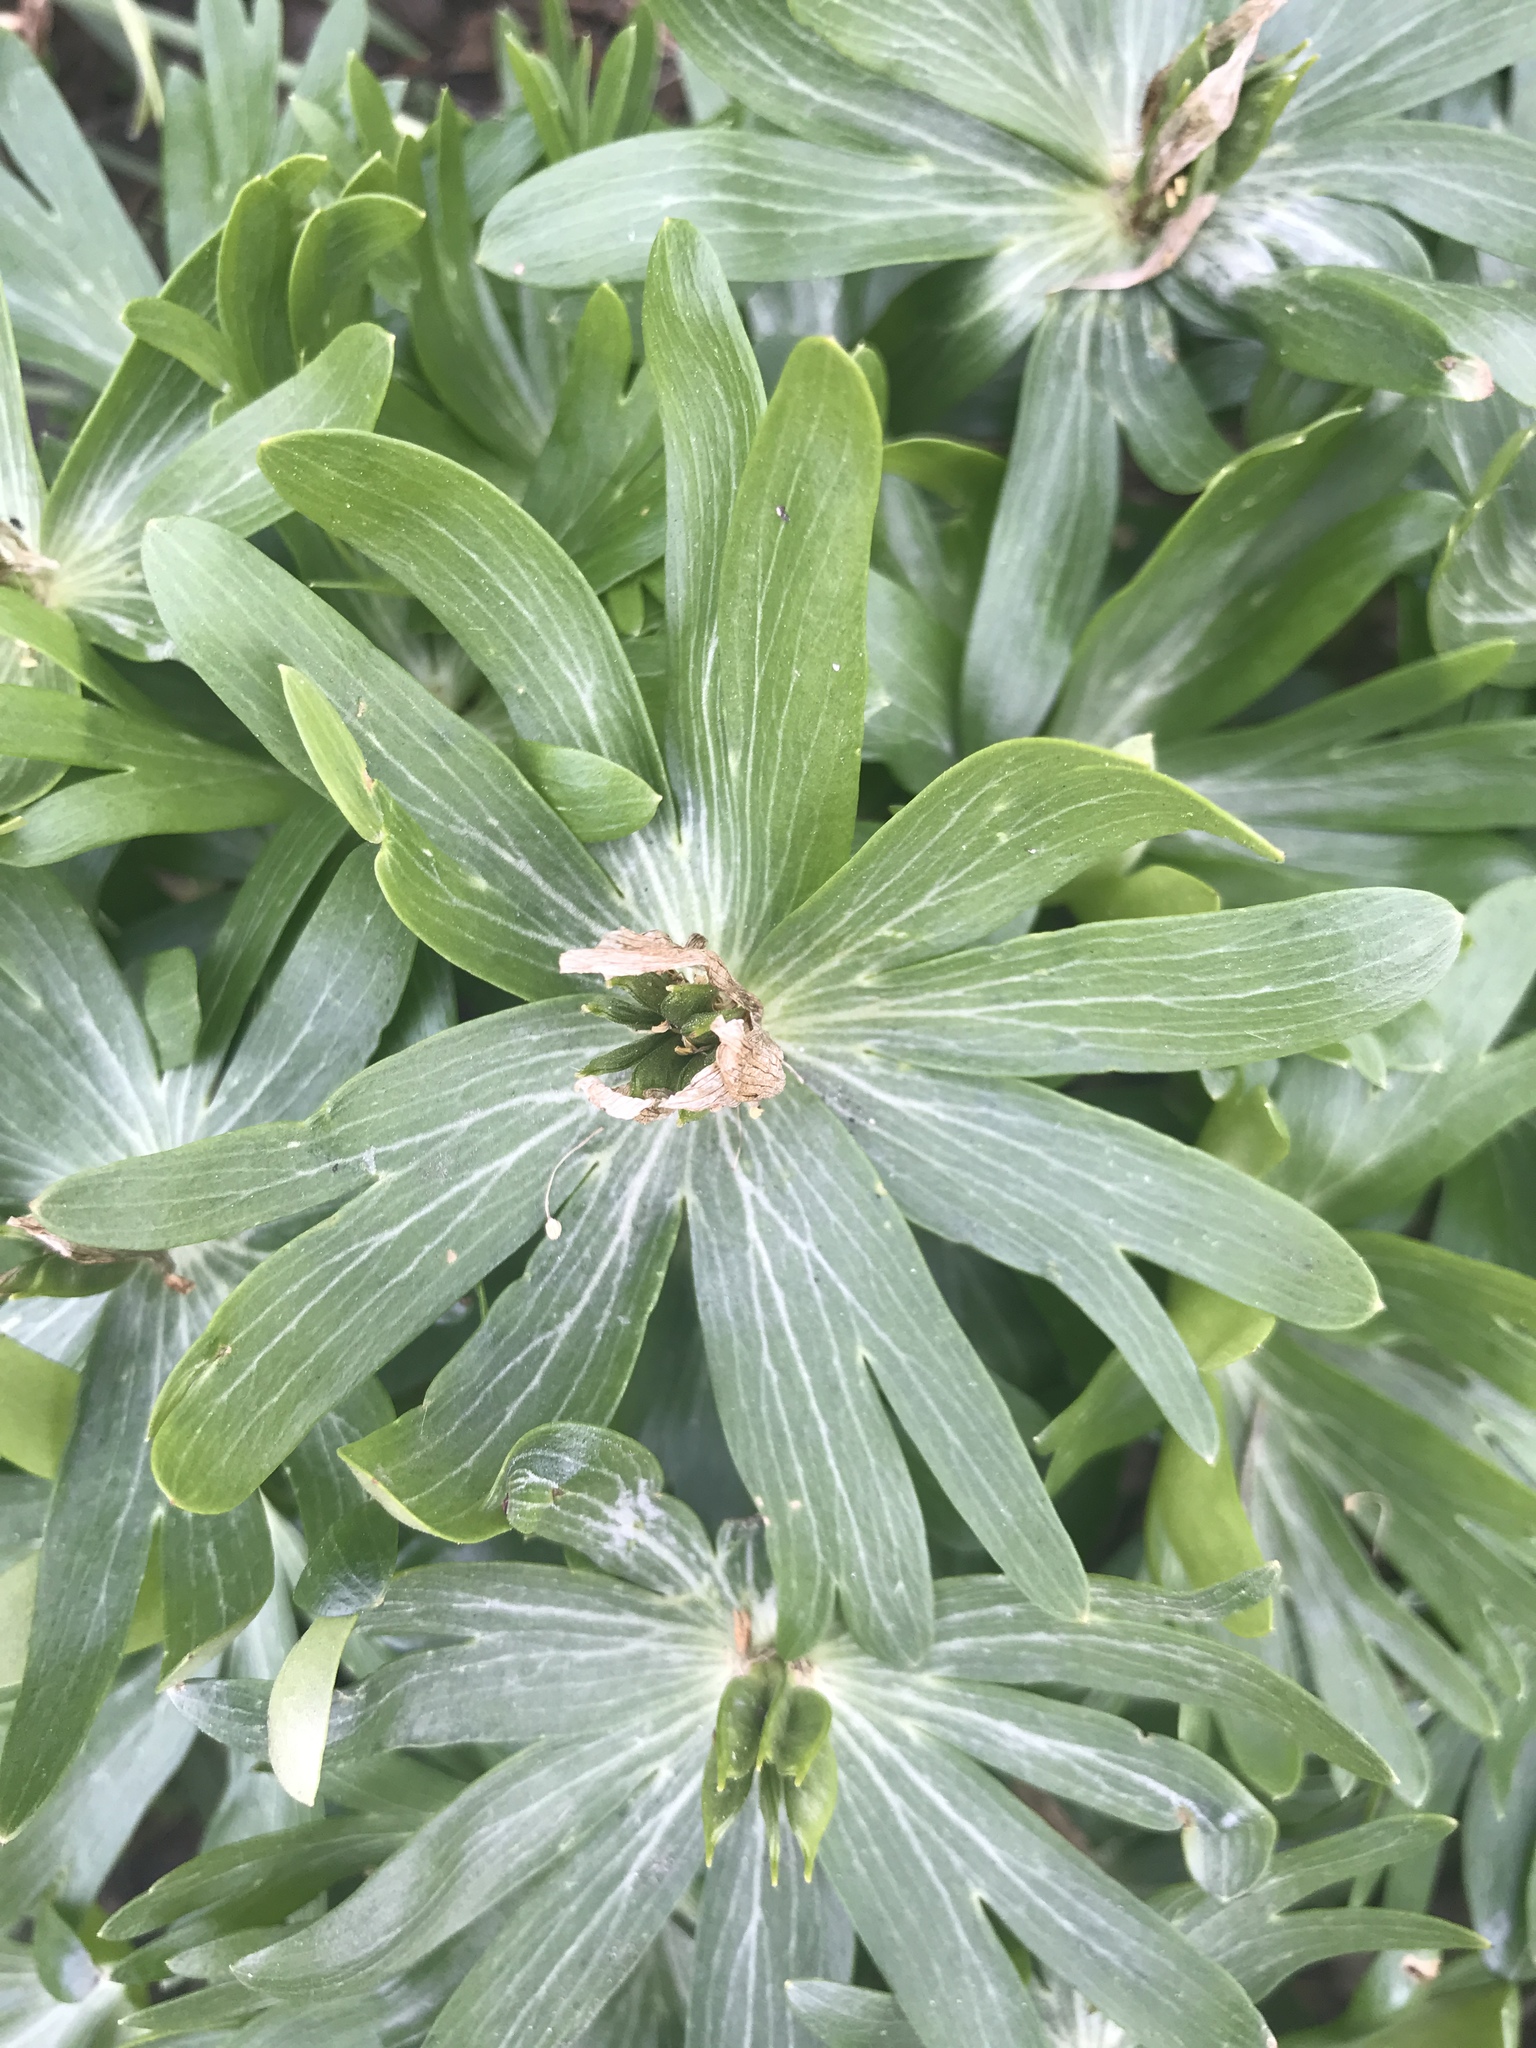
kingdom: Plantae
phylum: Tracheophyta
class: Magnoliopsida
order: Ranunculales
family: Ranunculaceae
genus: Eranthis
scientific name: Eranthis hyemalis
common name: Winter aconite
